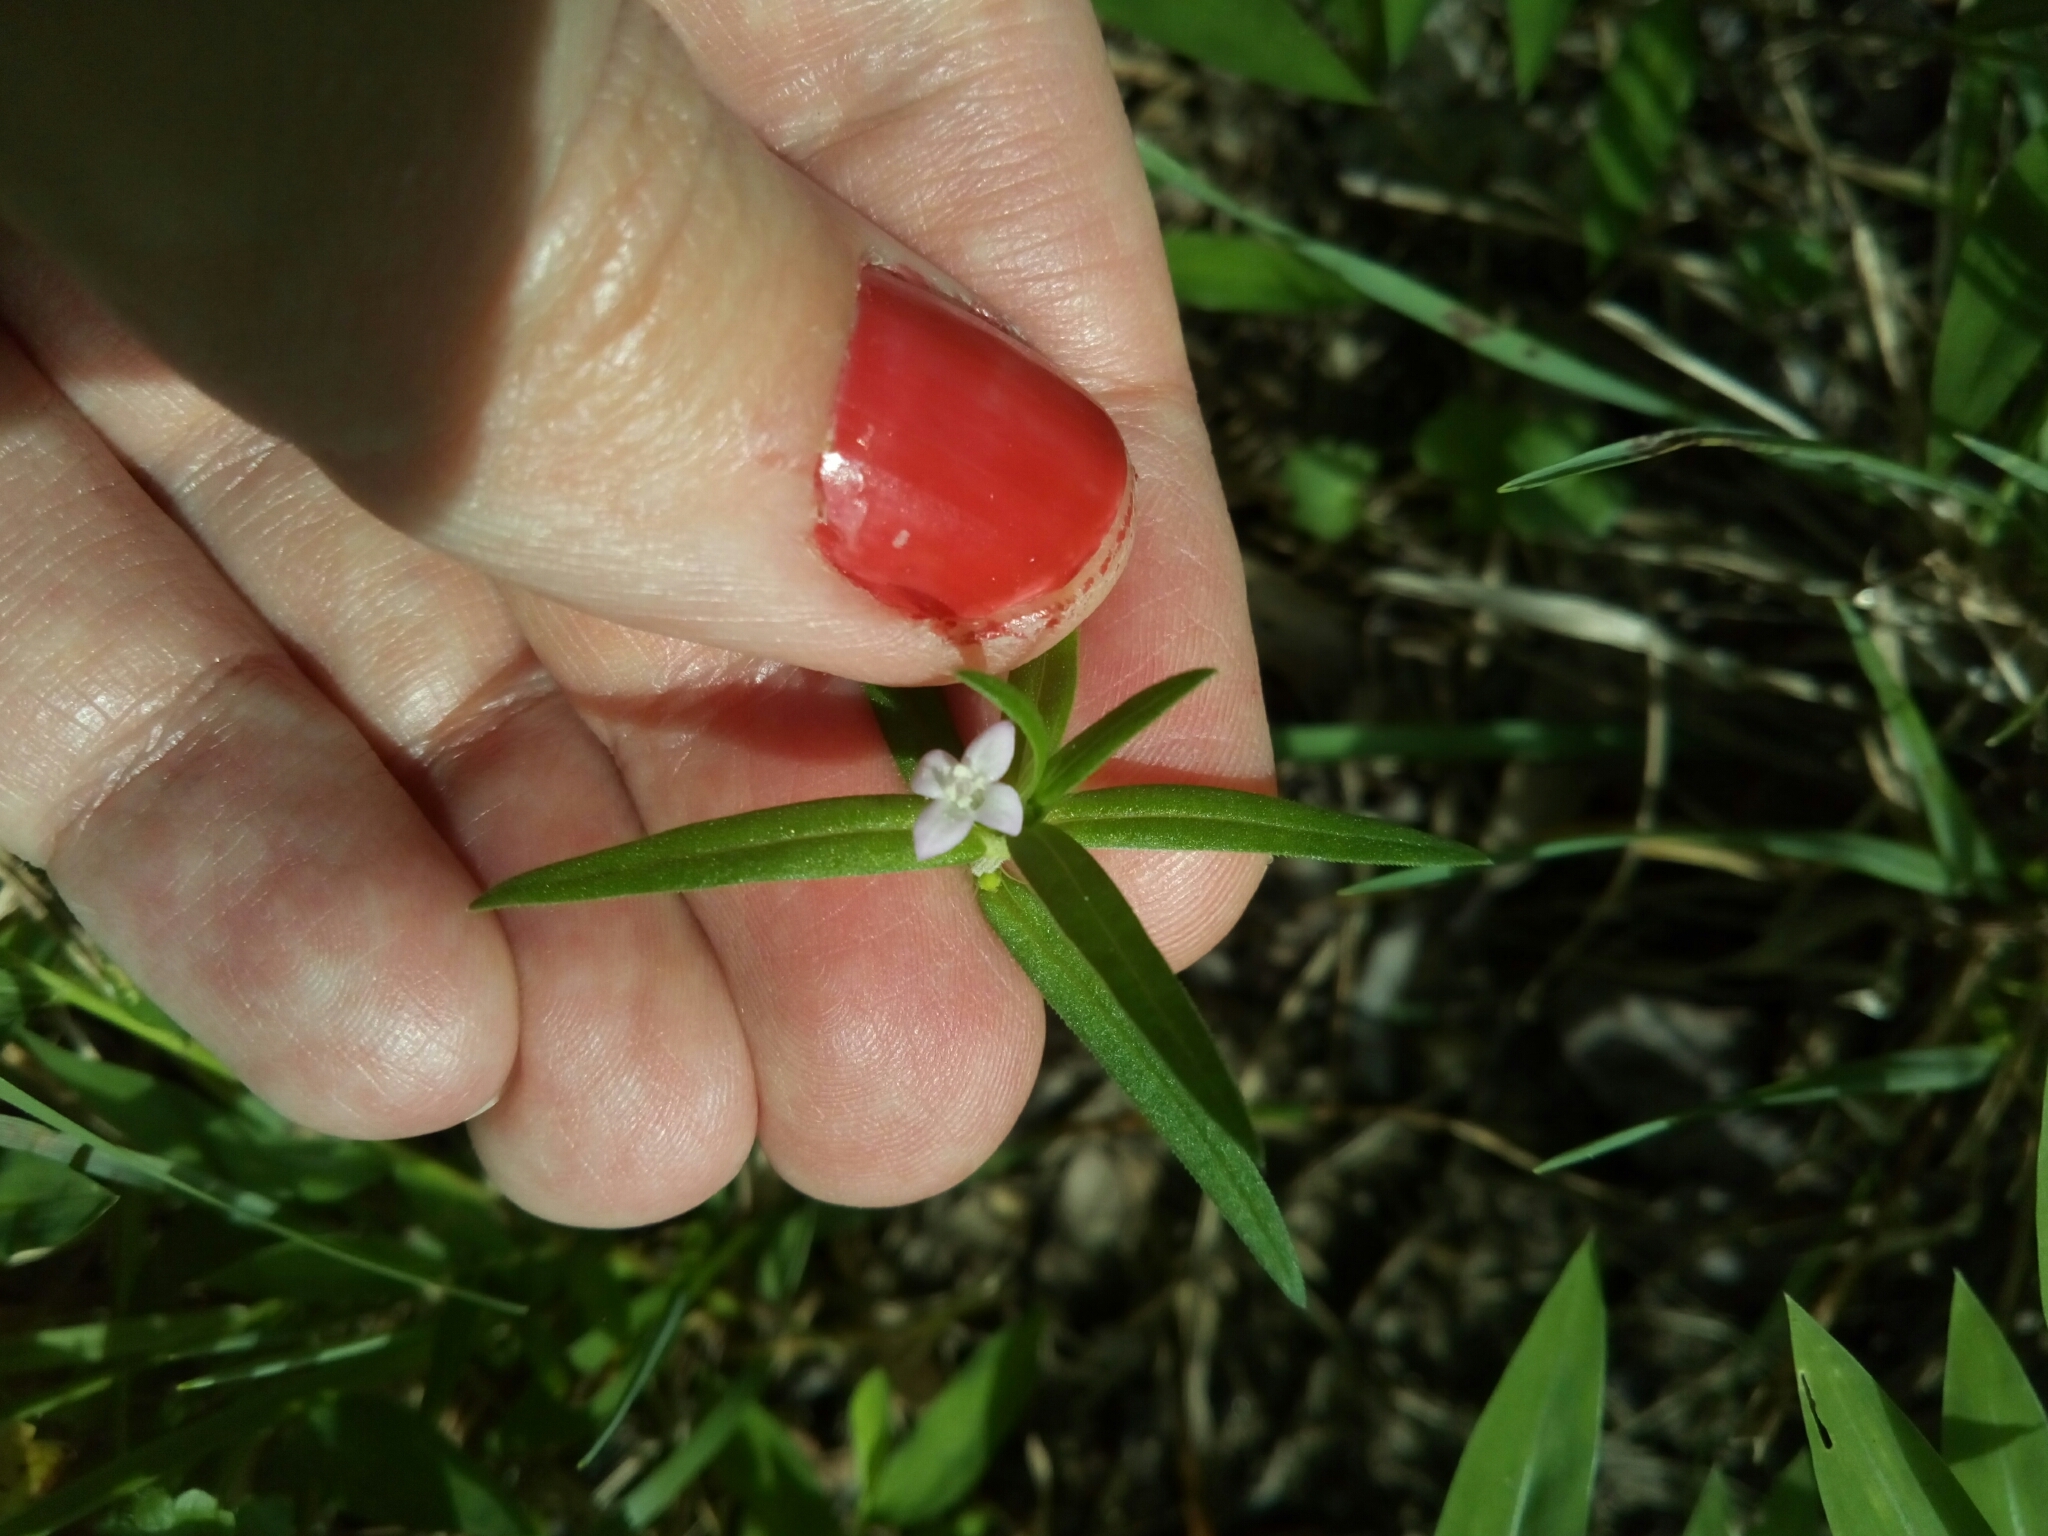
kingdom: Plantae
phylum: Tracheophyta
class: Magnoliopsida
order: Gentianales
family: Rubiaceae
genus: Hexasepalum
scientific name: Hexasepalum teres
